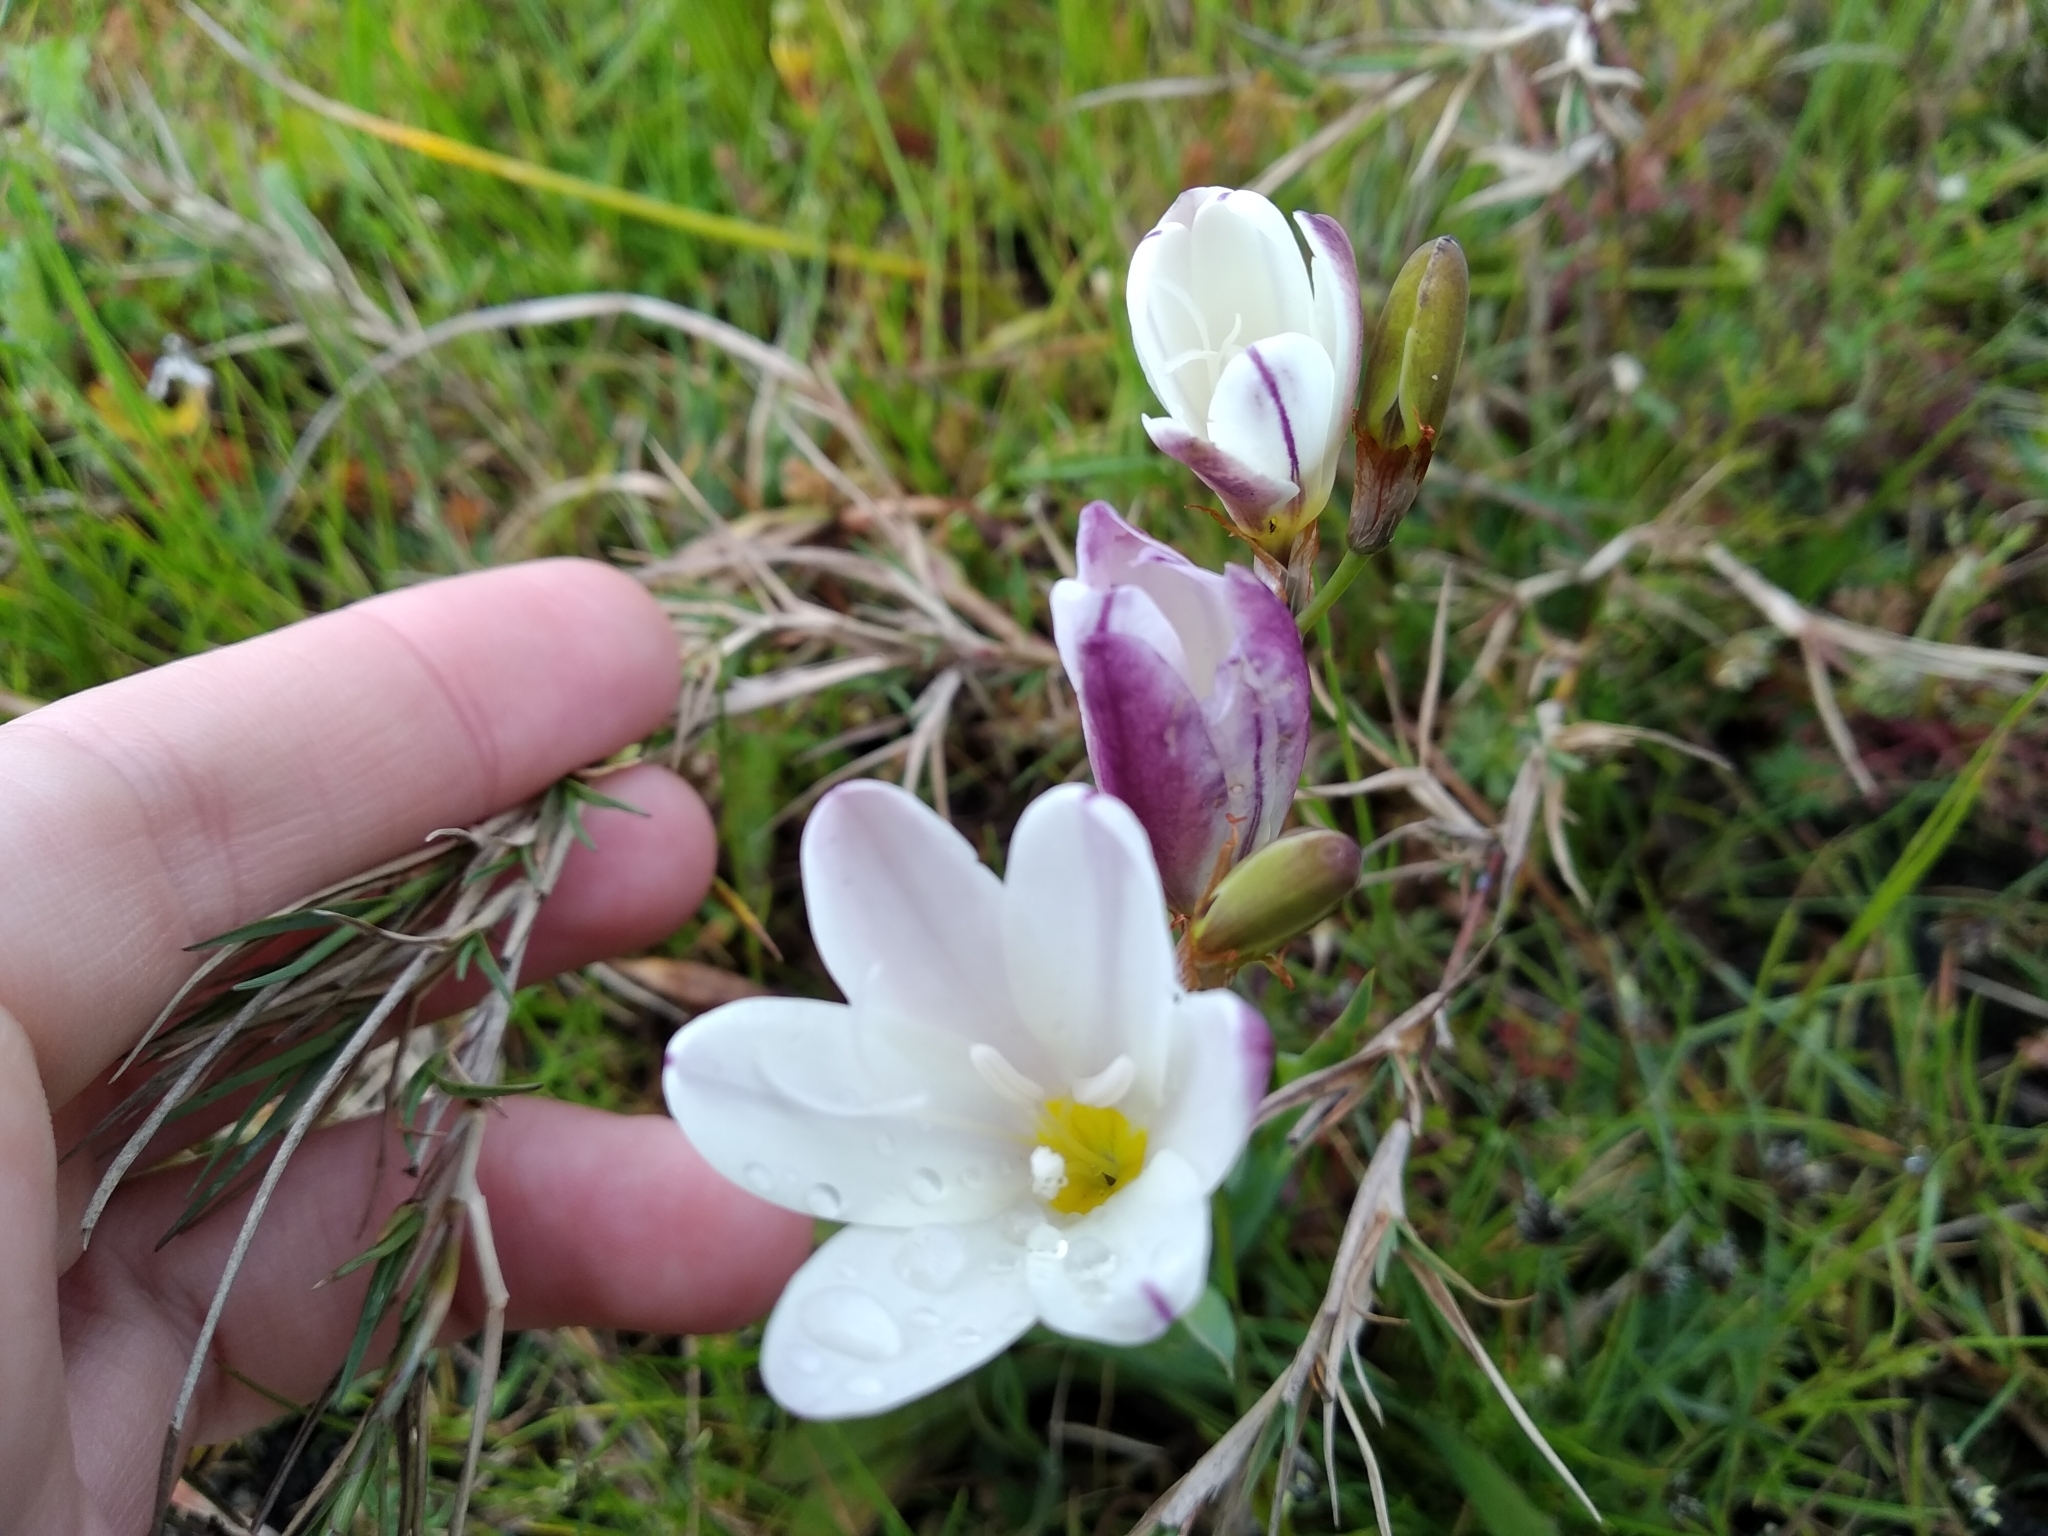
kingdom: Plantae
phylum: Tracheophyta
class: Liliopsida
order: Asparagales
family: Iridaceae
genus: Sparaxis
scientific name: Sparaxis bulbifera
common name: Harlequin-flower
